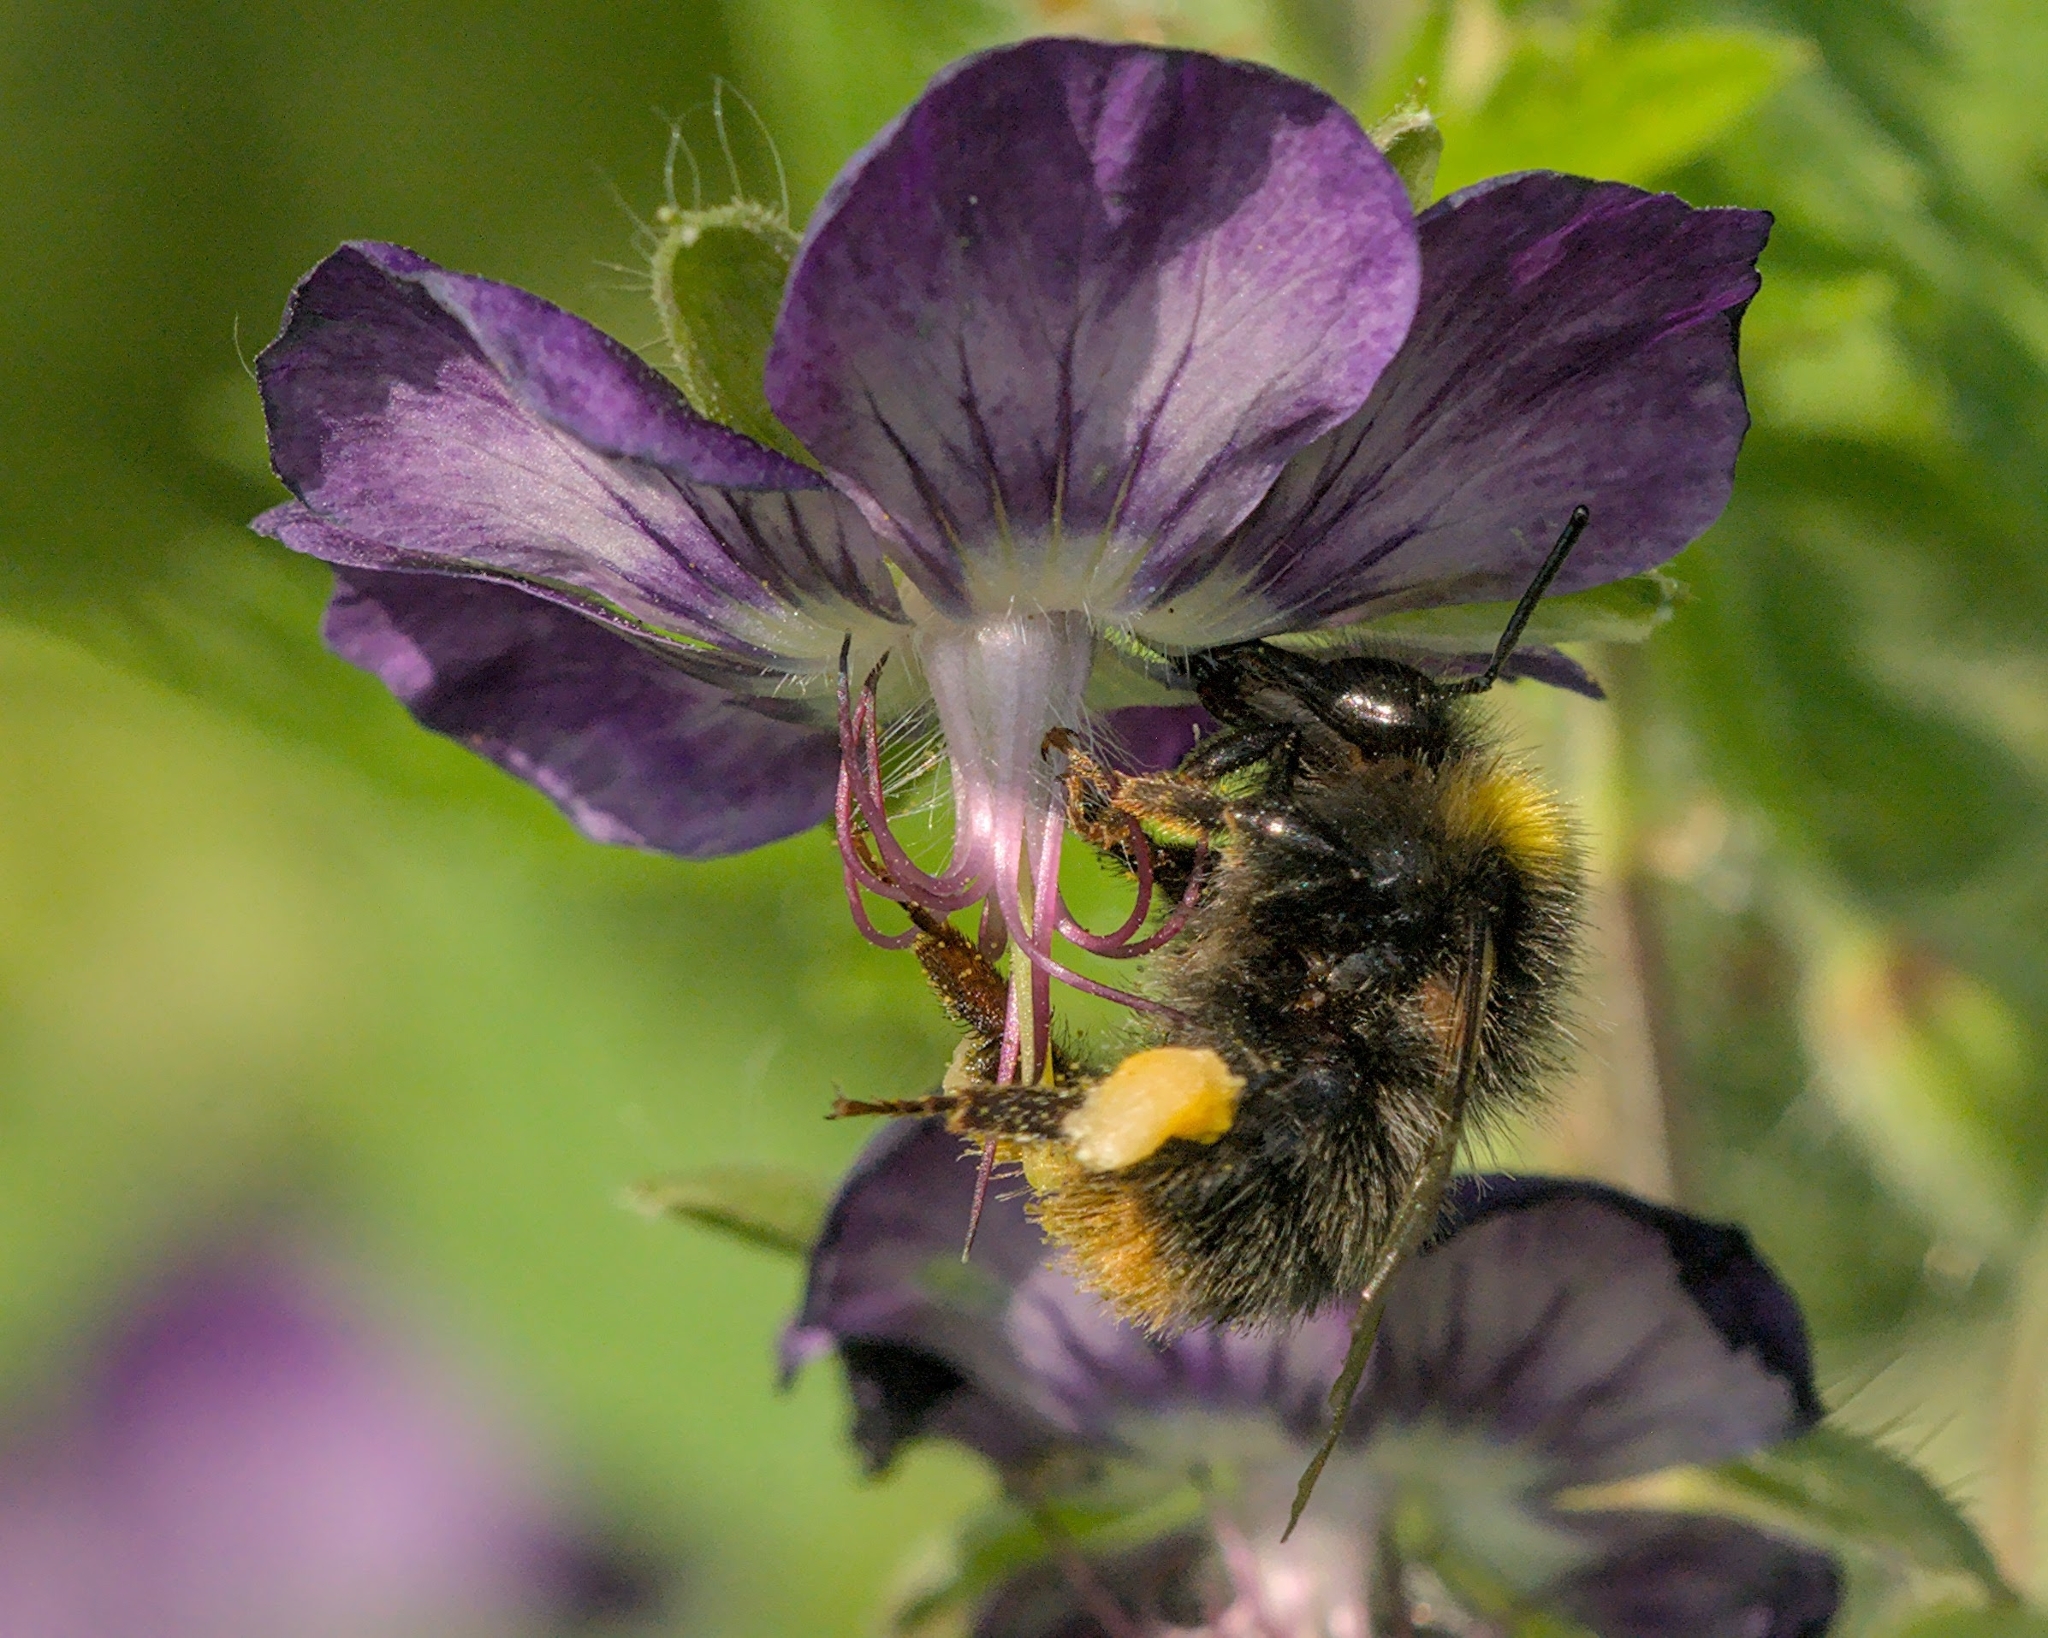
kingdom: Animalia
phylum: Arthropoda
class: Insecta
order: Hymenoptera
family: Apidae
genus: Bombus
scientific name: Bombus pratorum
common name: Early humble-bee
